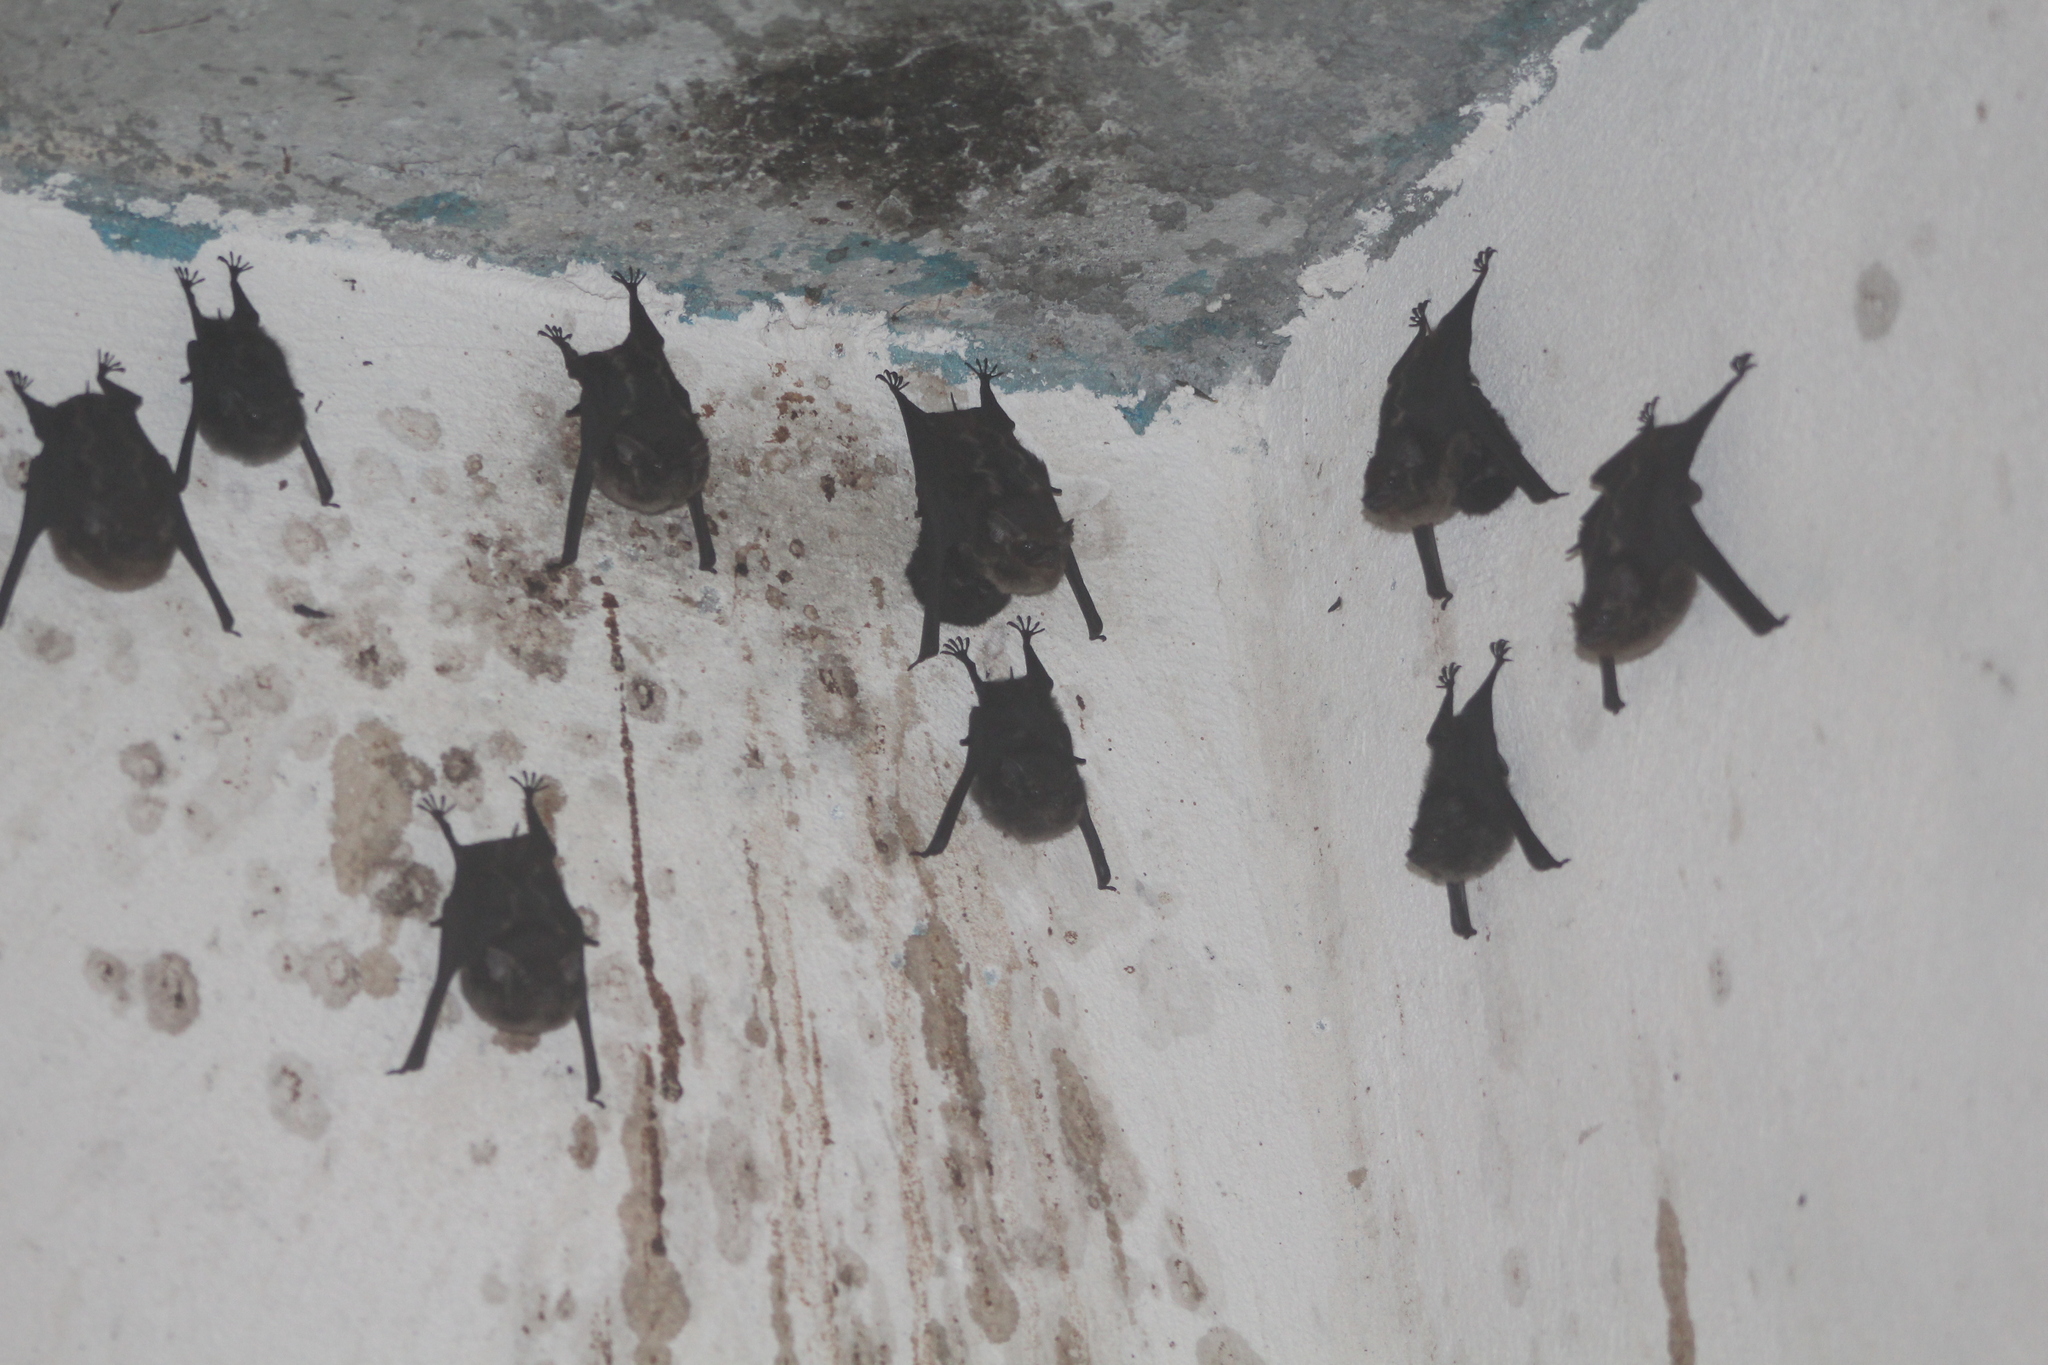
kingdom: Animalia
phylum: Chordata
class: Mammalia
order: Chiroptera
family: Emballonuridae
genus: Saccopteryx
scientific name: Saccopteryx bilineata
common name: Greater sac-winged bat
